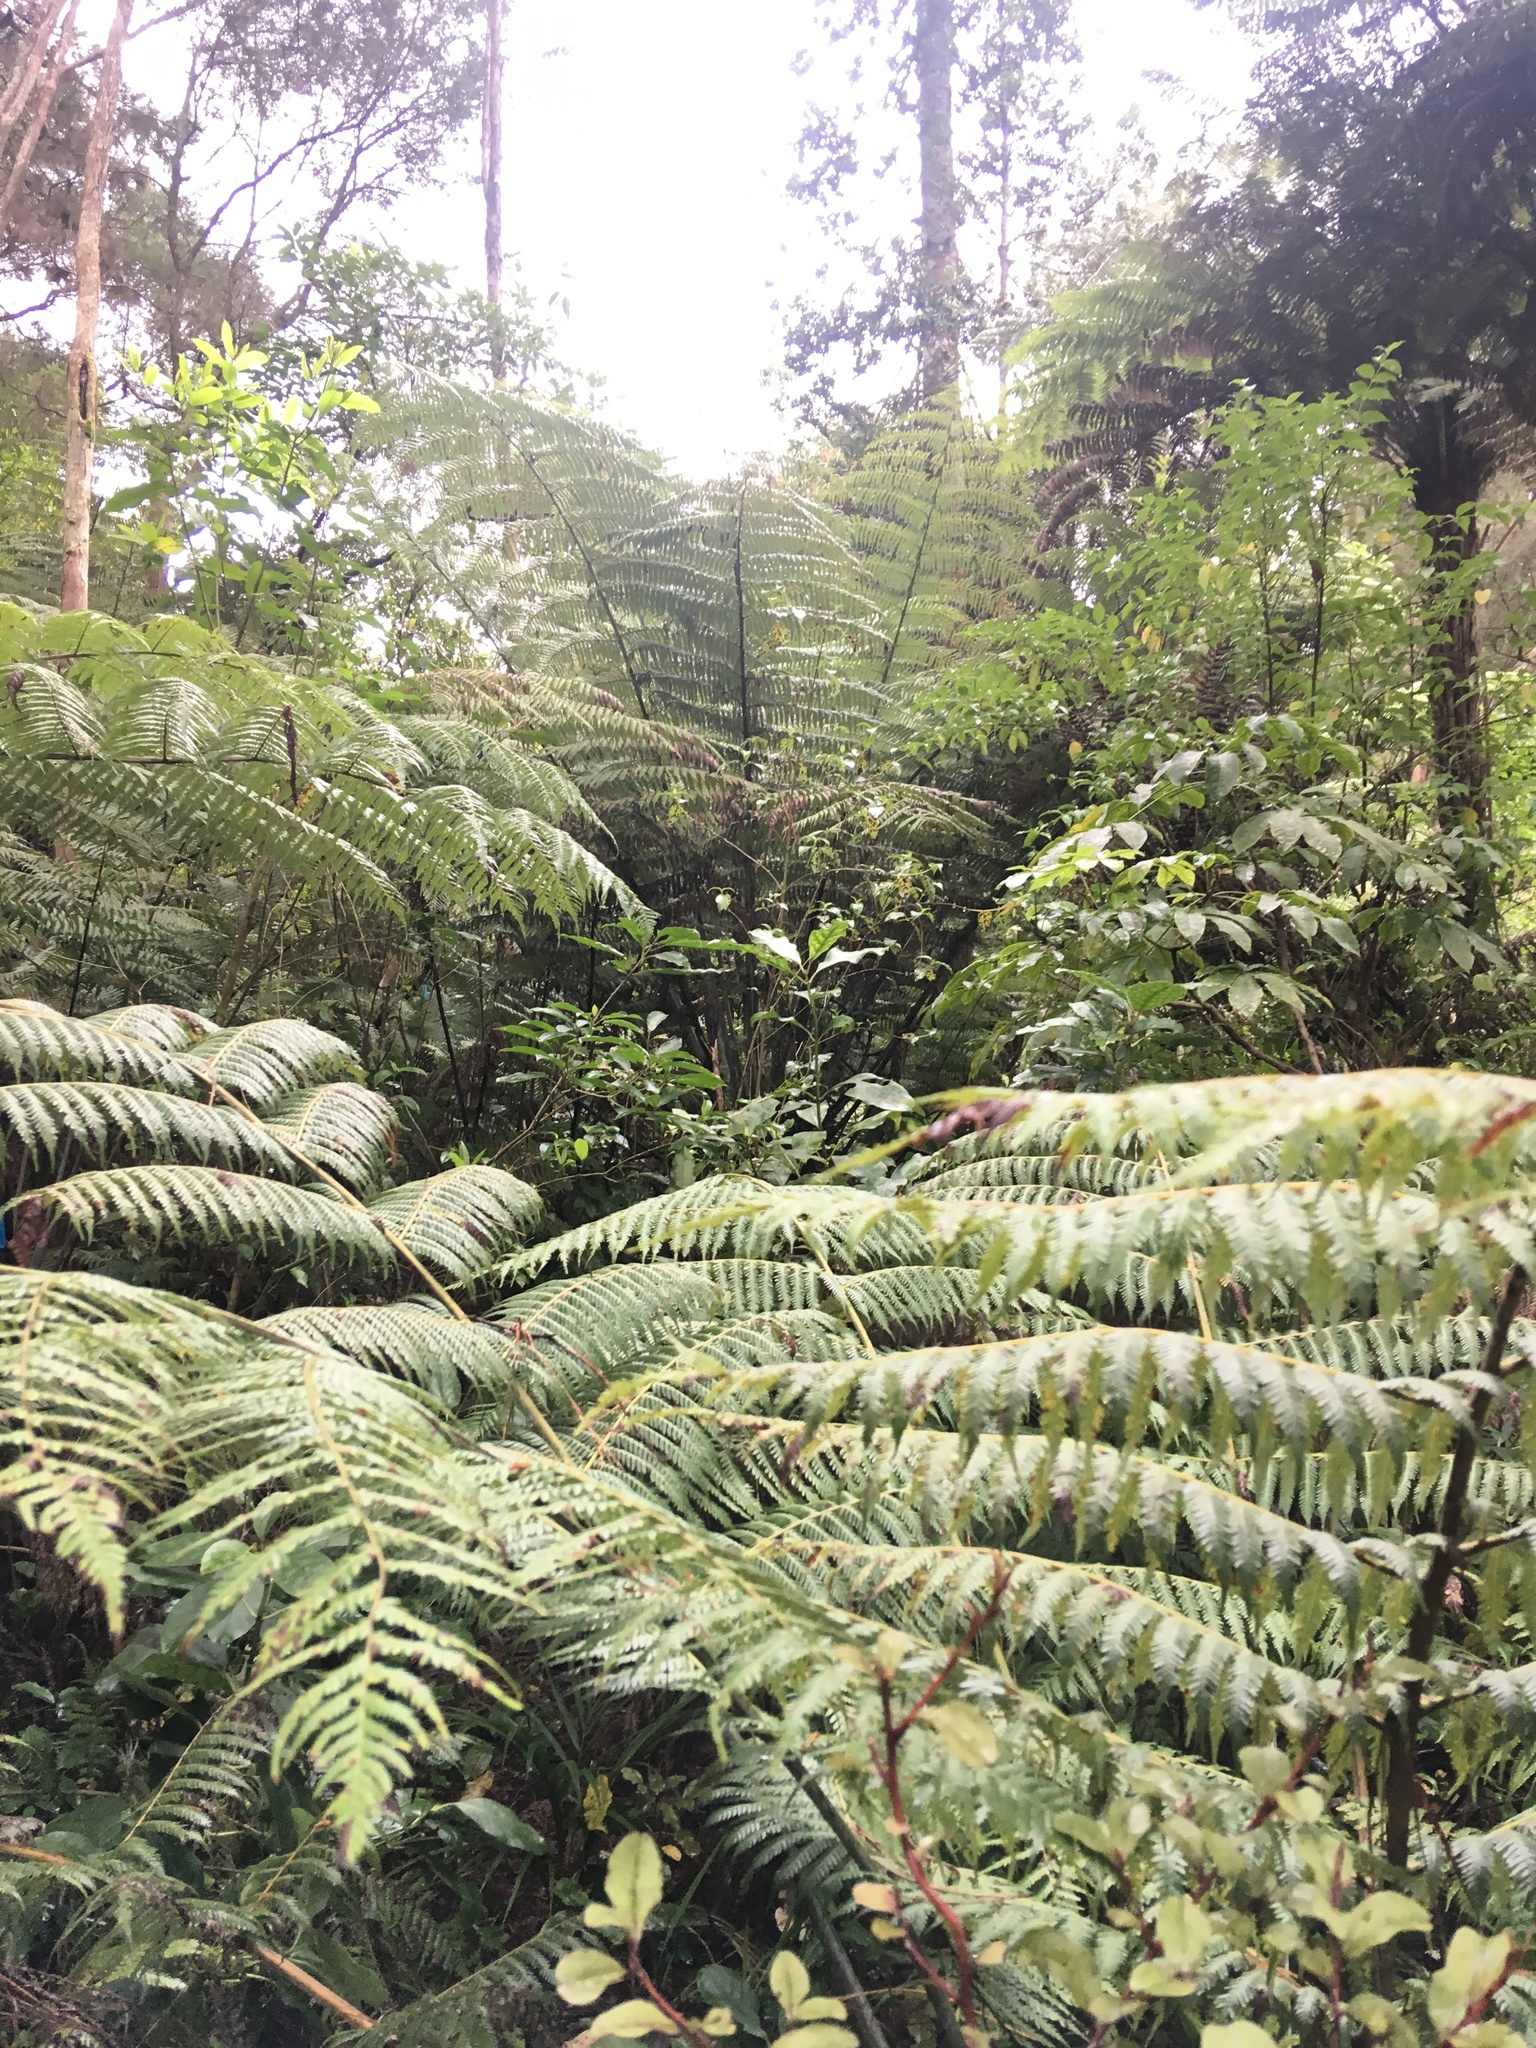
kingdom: Plantae
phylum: Tracheophyta
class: Polypodiopsida
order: Cyatheales
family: Cyatheaceae
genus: Alsophila
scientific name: Alsophila dealbata
